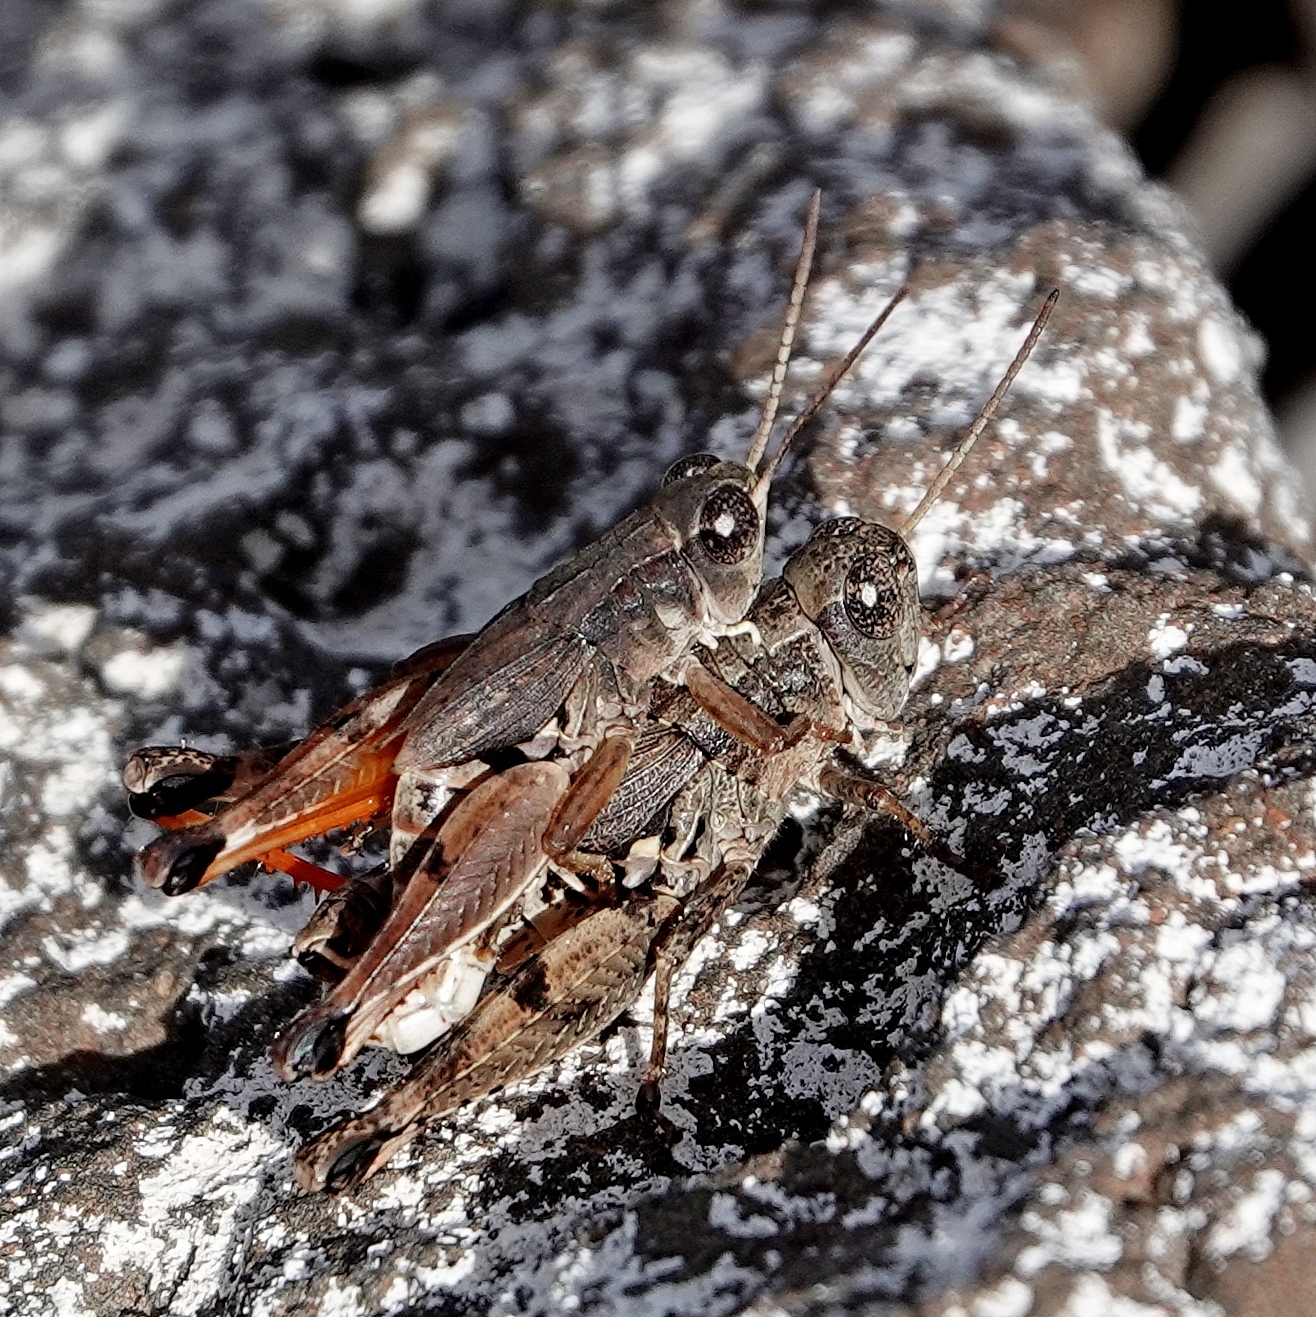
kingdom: Animalia
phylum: Arthropoda
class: Insecta
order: Orthoptera
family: Acrididae
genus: Phaulacridium
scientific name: Phaulacridium vittatum
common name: Wingless grasshopper
